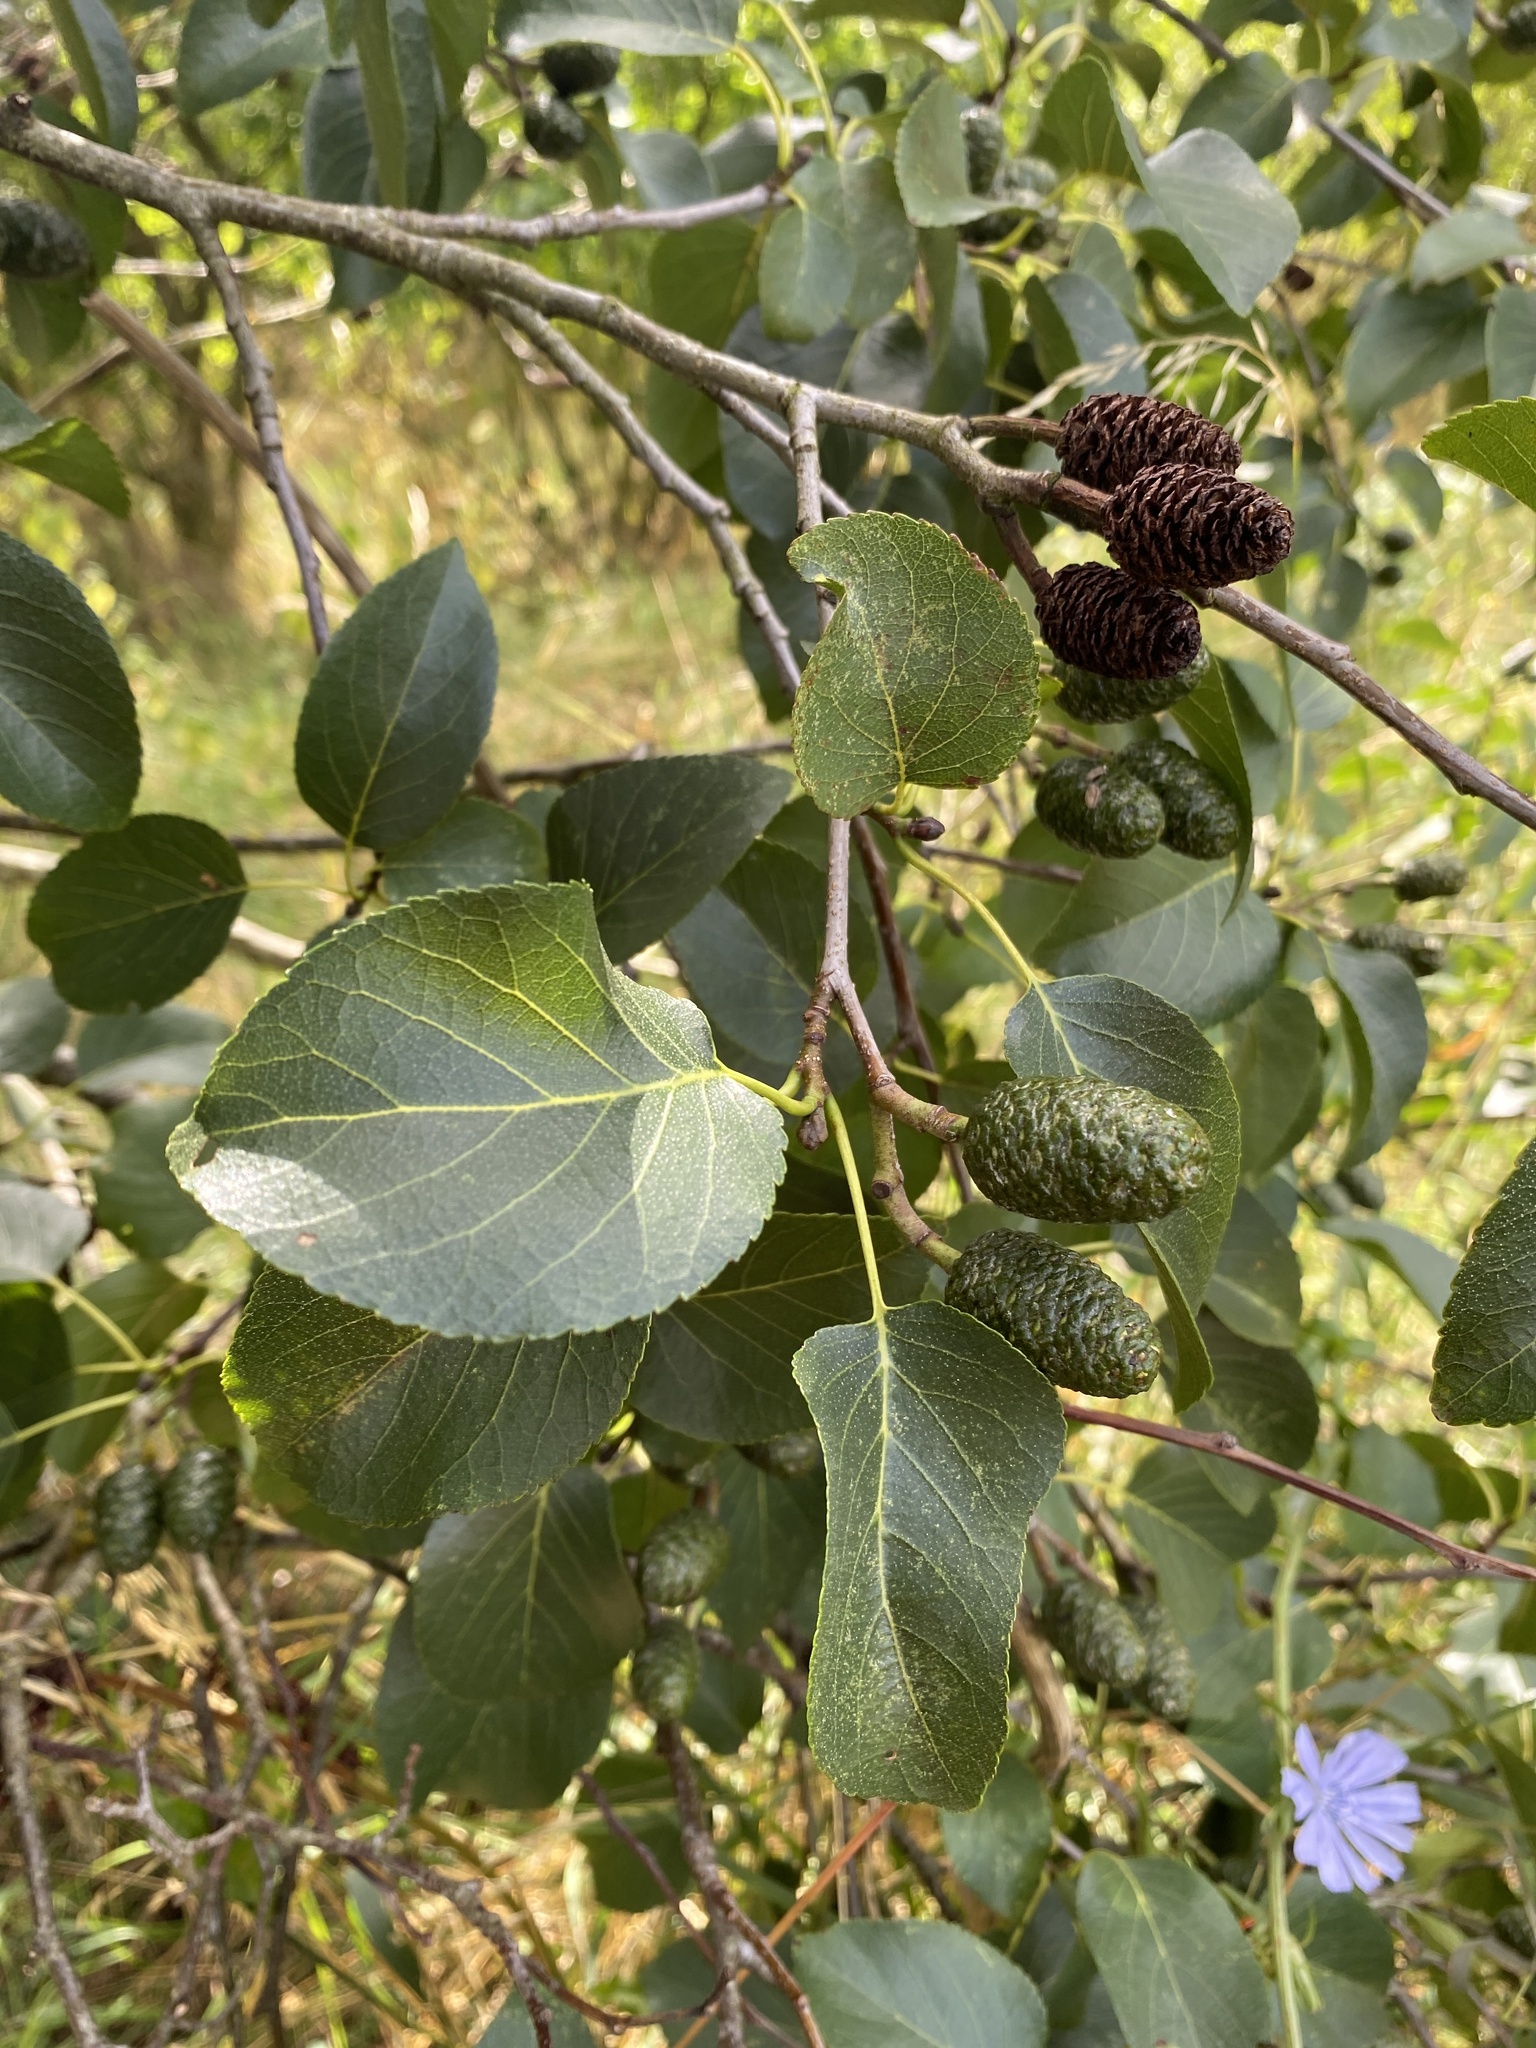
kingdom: Plantae
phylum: Tracheophyta
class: Magnoliopsida
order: Fagales
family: Betulaceae
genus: Alnus
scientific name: Alnus cordata
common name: Italian alder
